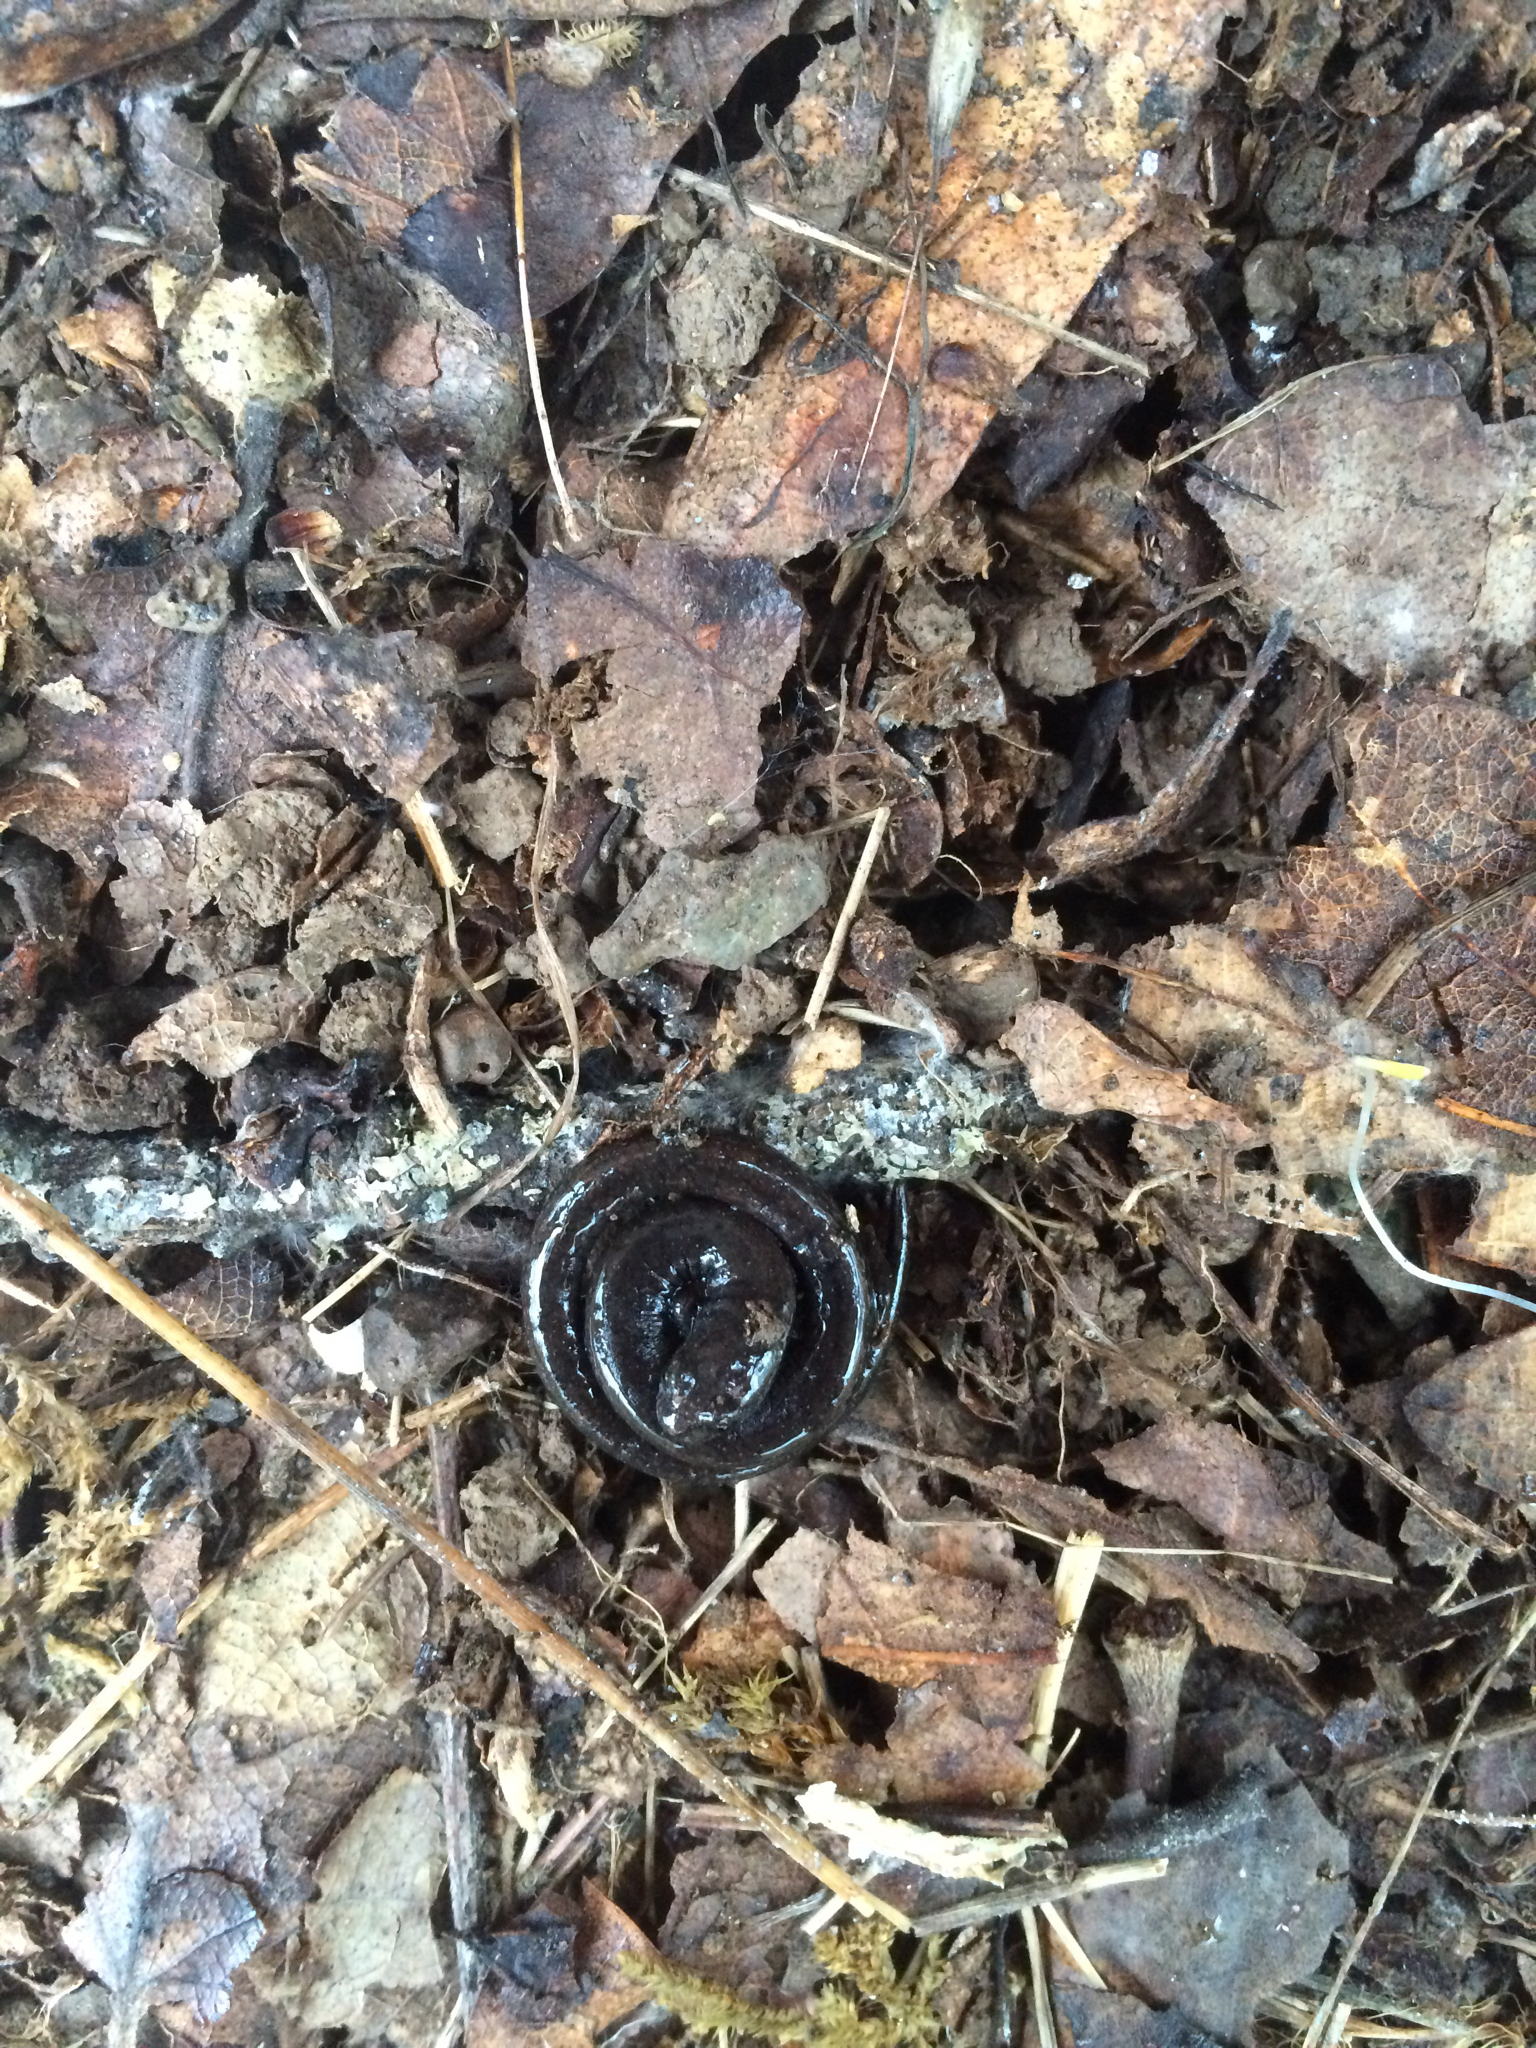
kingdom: Animalia
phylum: Chordata
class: Amphibia
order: Caudata
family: Plethodontidae
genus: Batrachoseps
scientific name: Batrachoseps attenuatus
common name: California slender salamander
